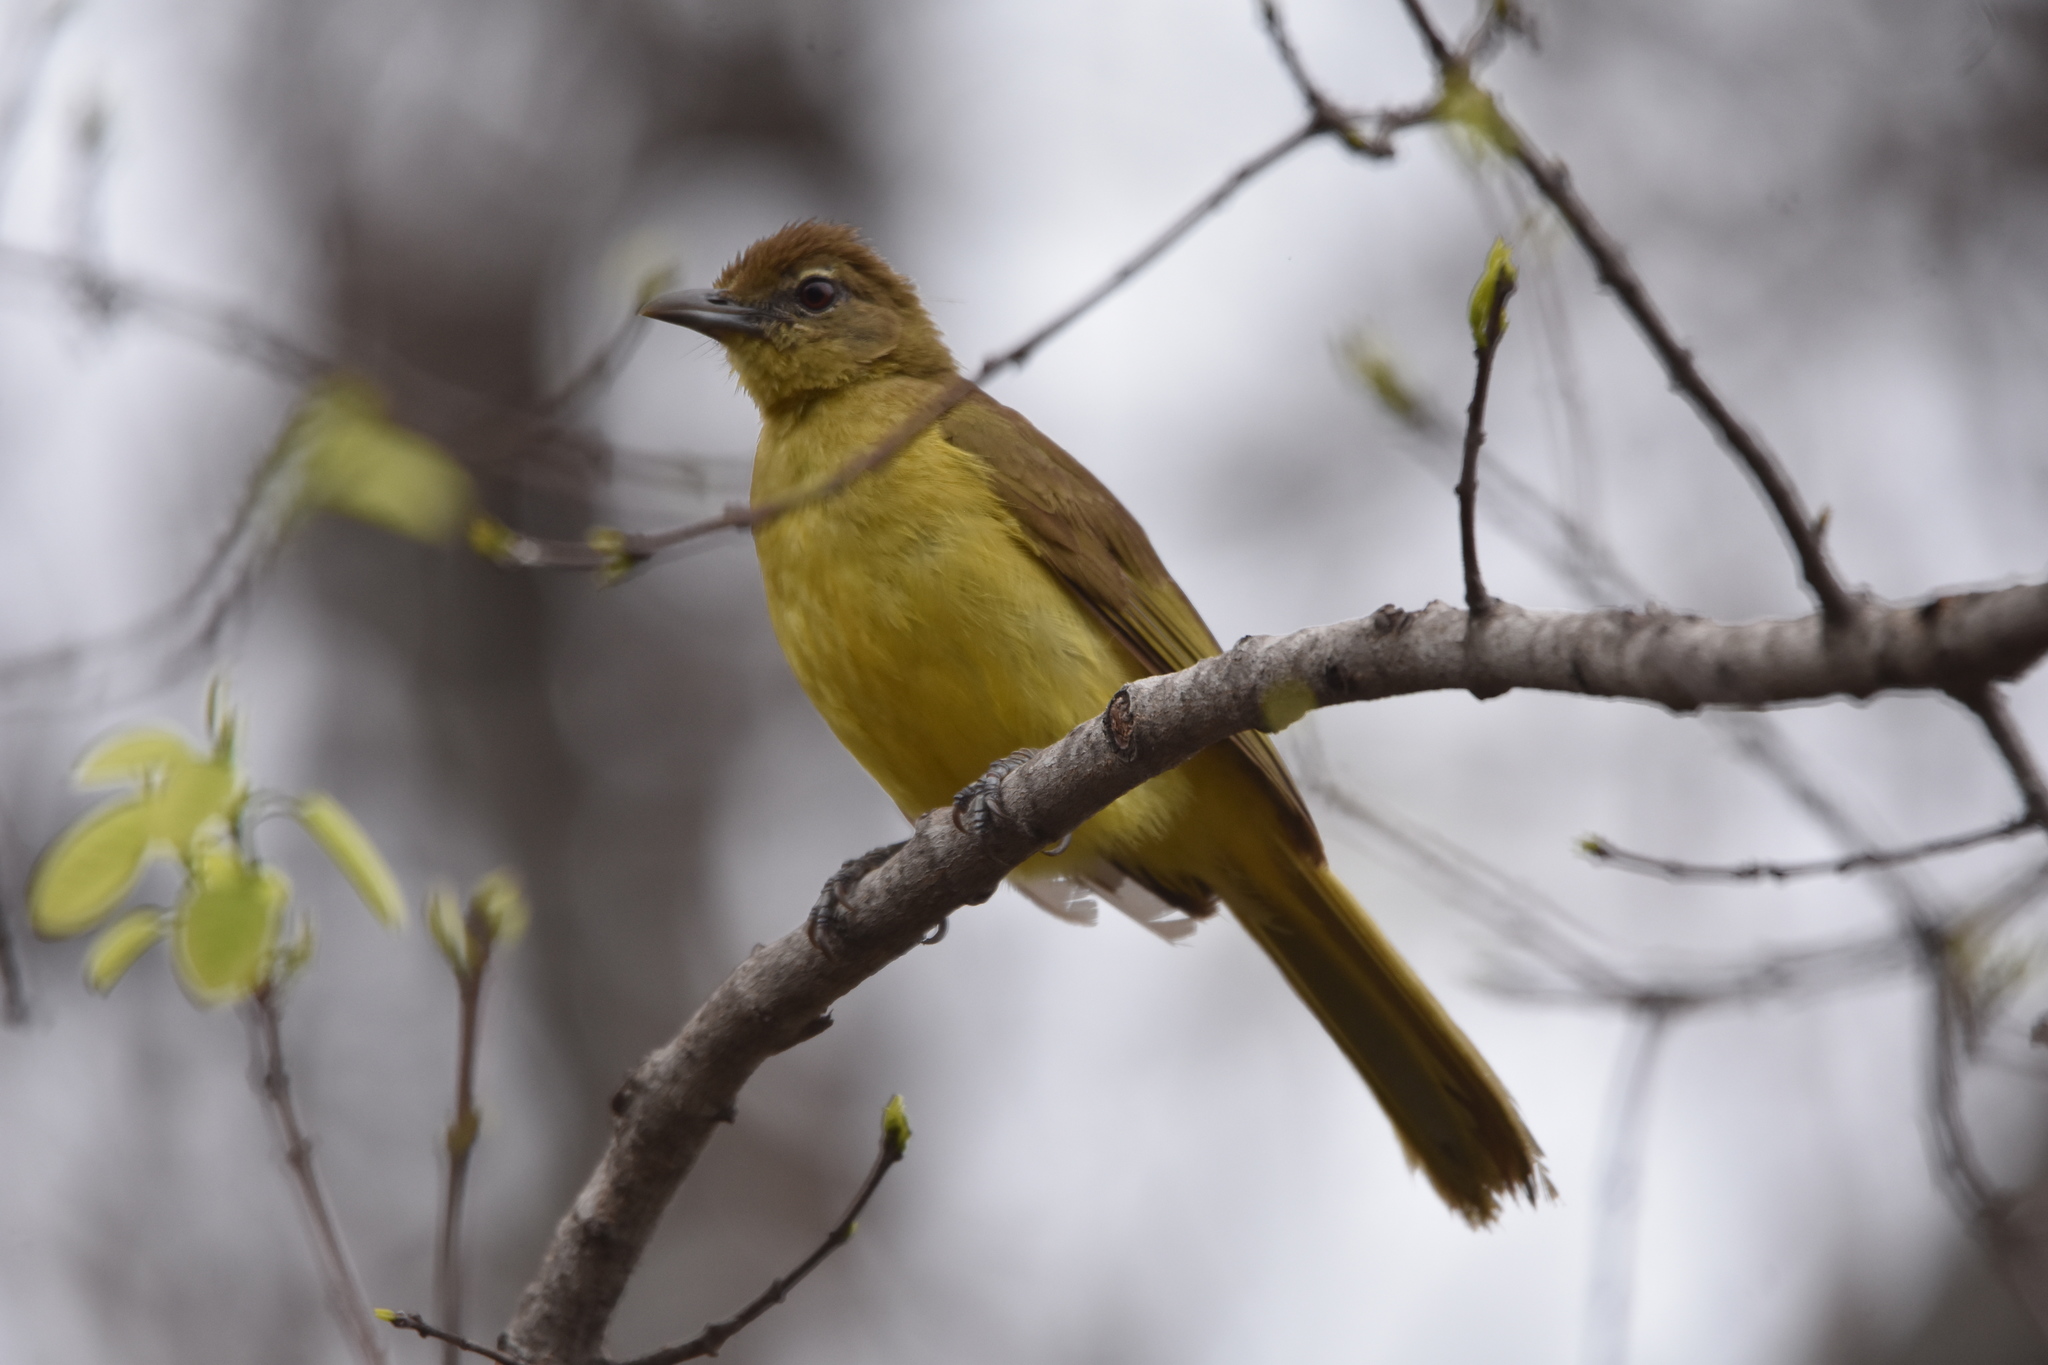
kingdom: Animalia
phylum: Chordata
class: Aves
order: Passeriformes
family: Pycnonotidae
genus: Chlorocichla
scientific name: Chlorocichla flaviventris
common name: Yellow-bellied greenbul
